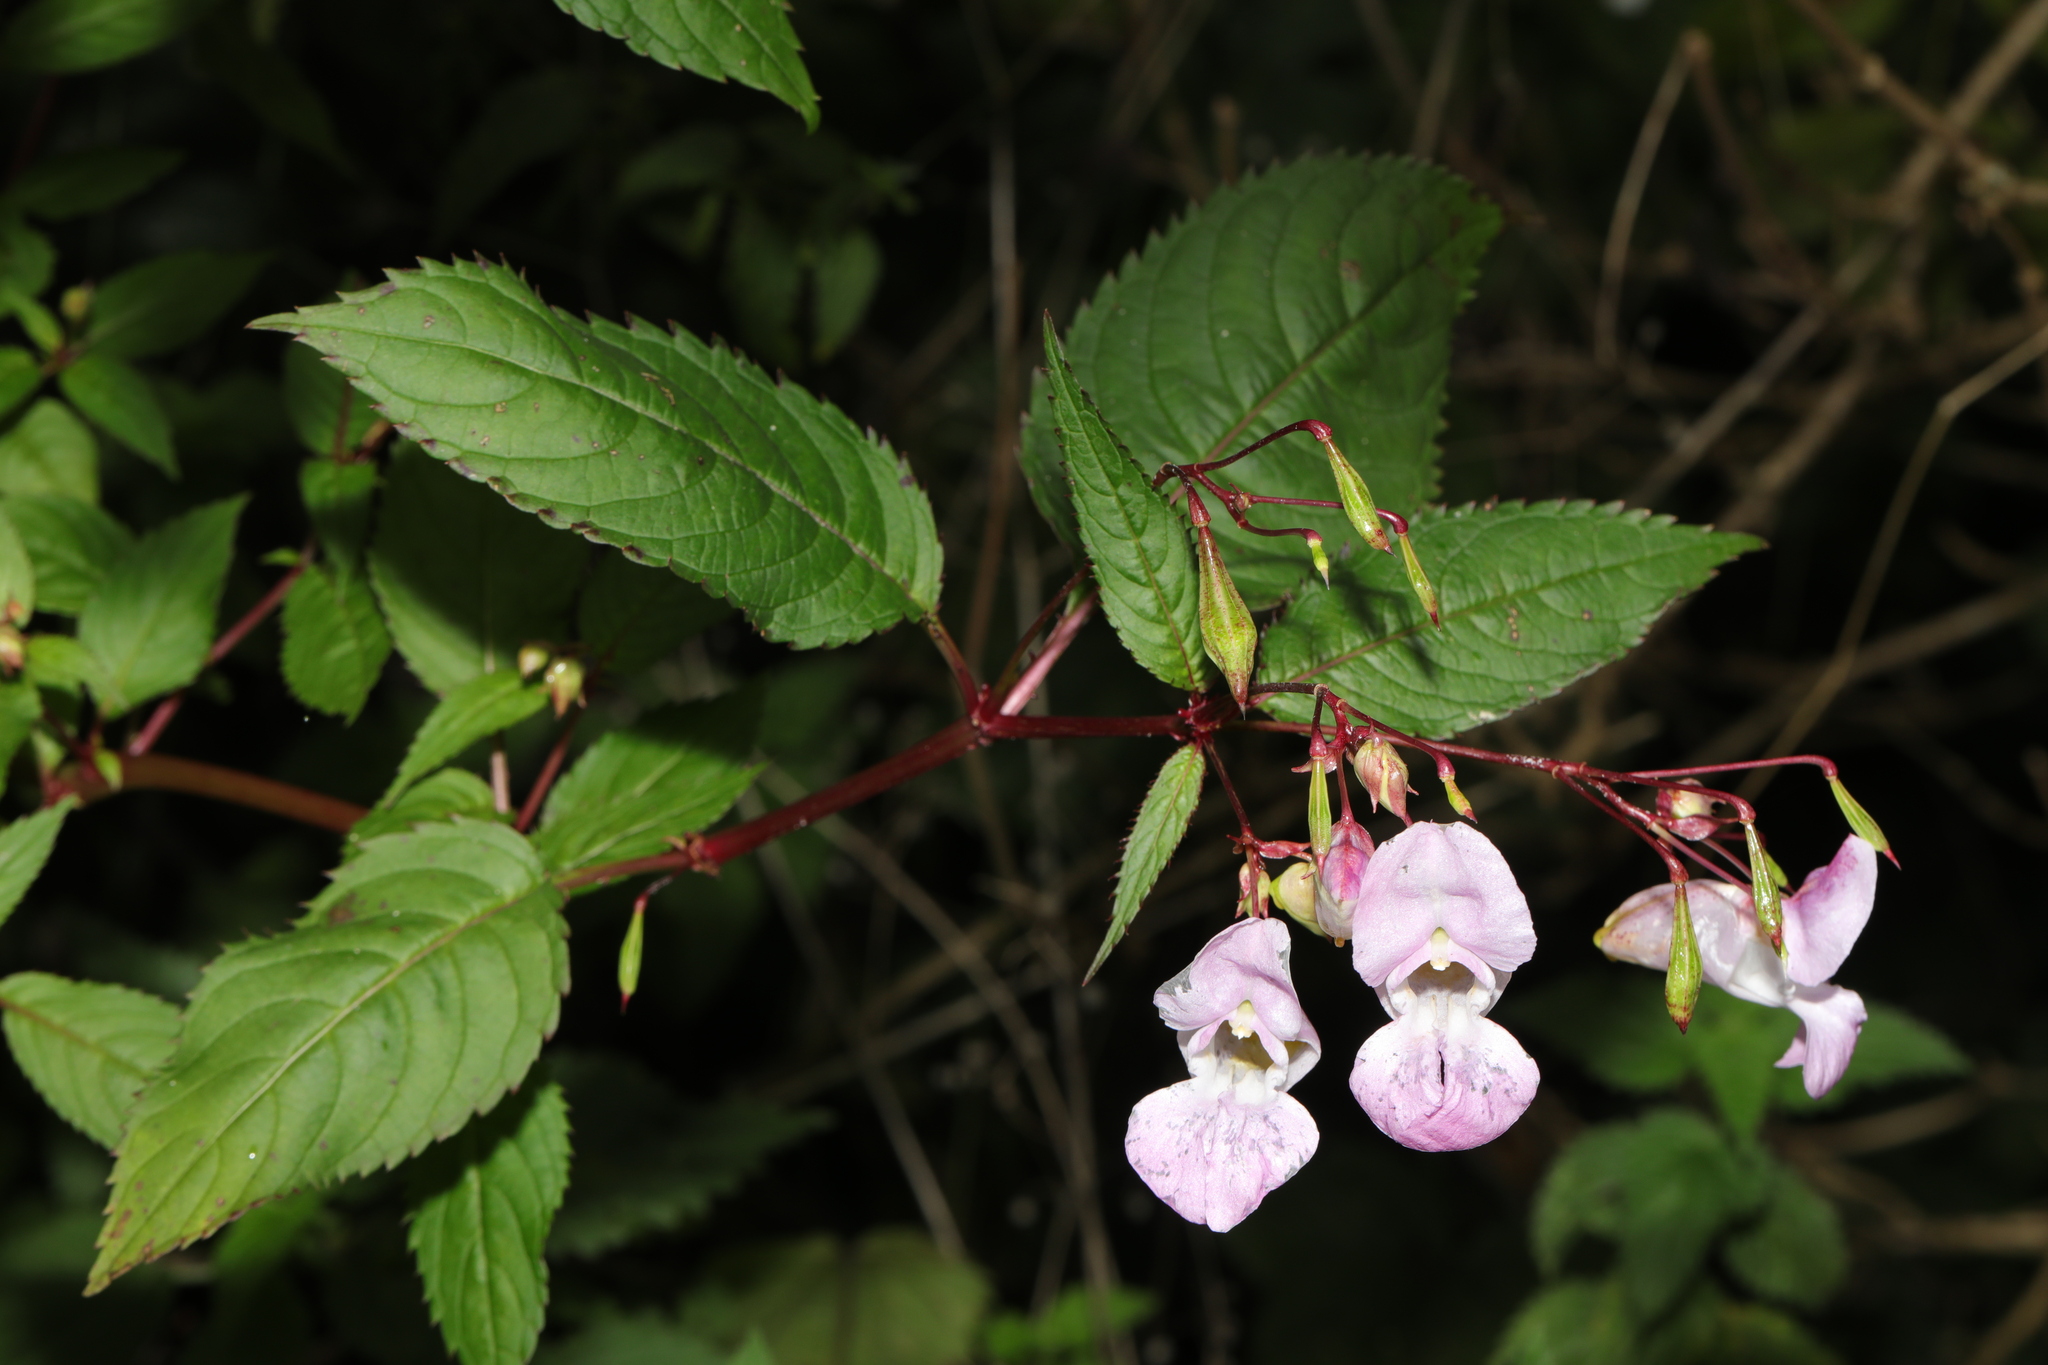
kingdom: Plantae
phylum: Tracheophyta
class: Magnoliopsida
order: Ericales
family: Balsaminaceae
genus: Impatiens
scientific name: Impatiens glandulifera
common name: Himalayan balsam
